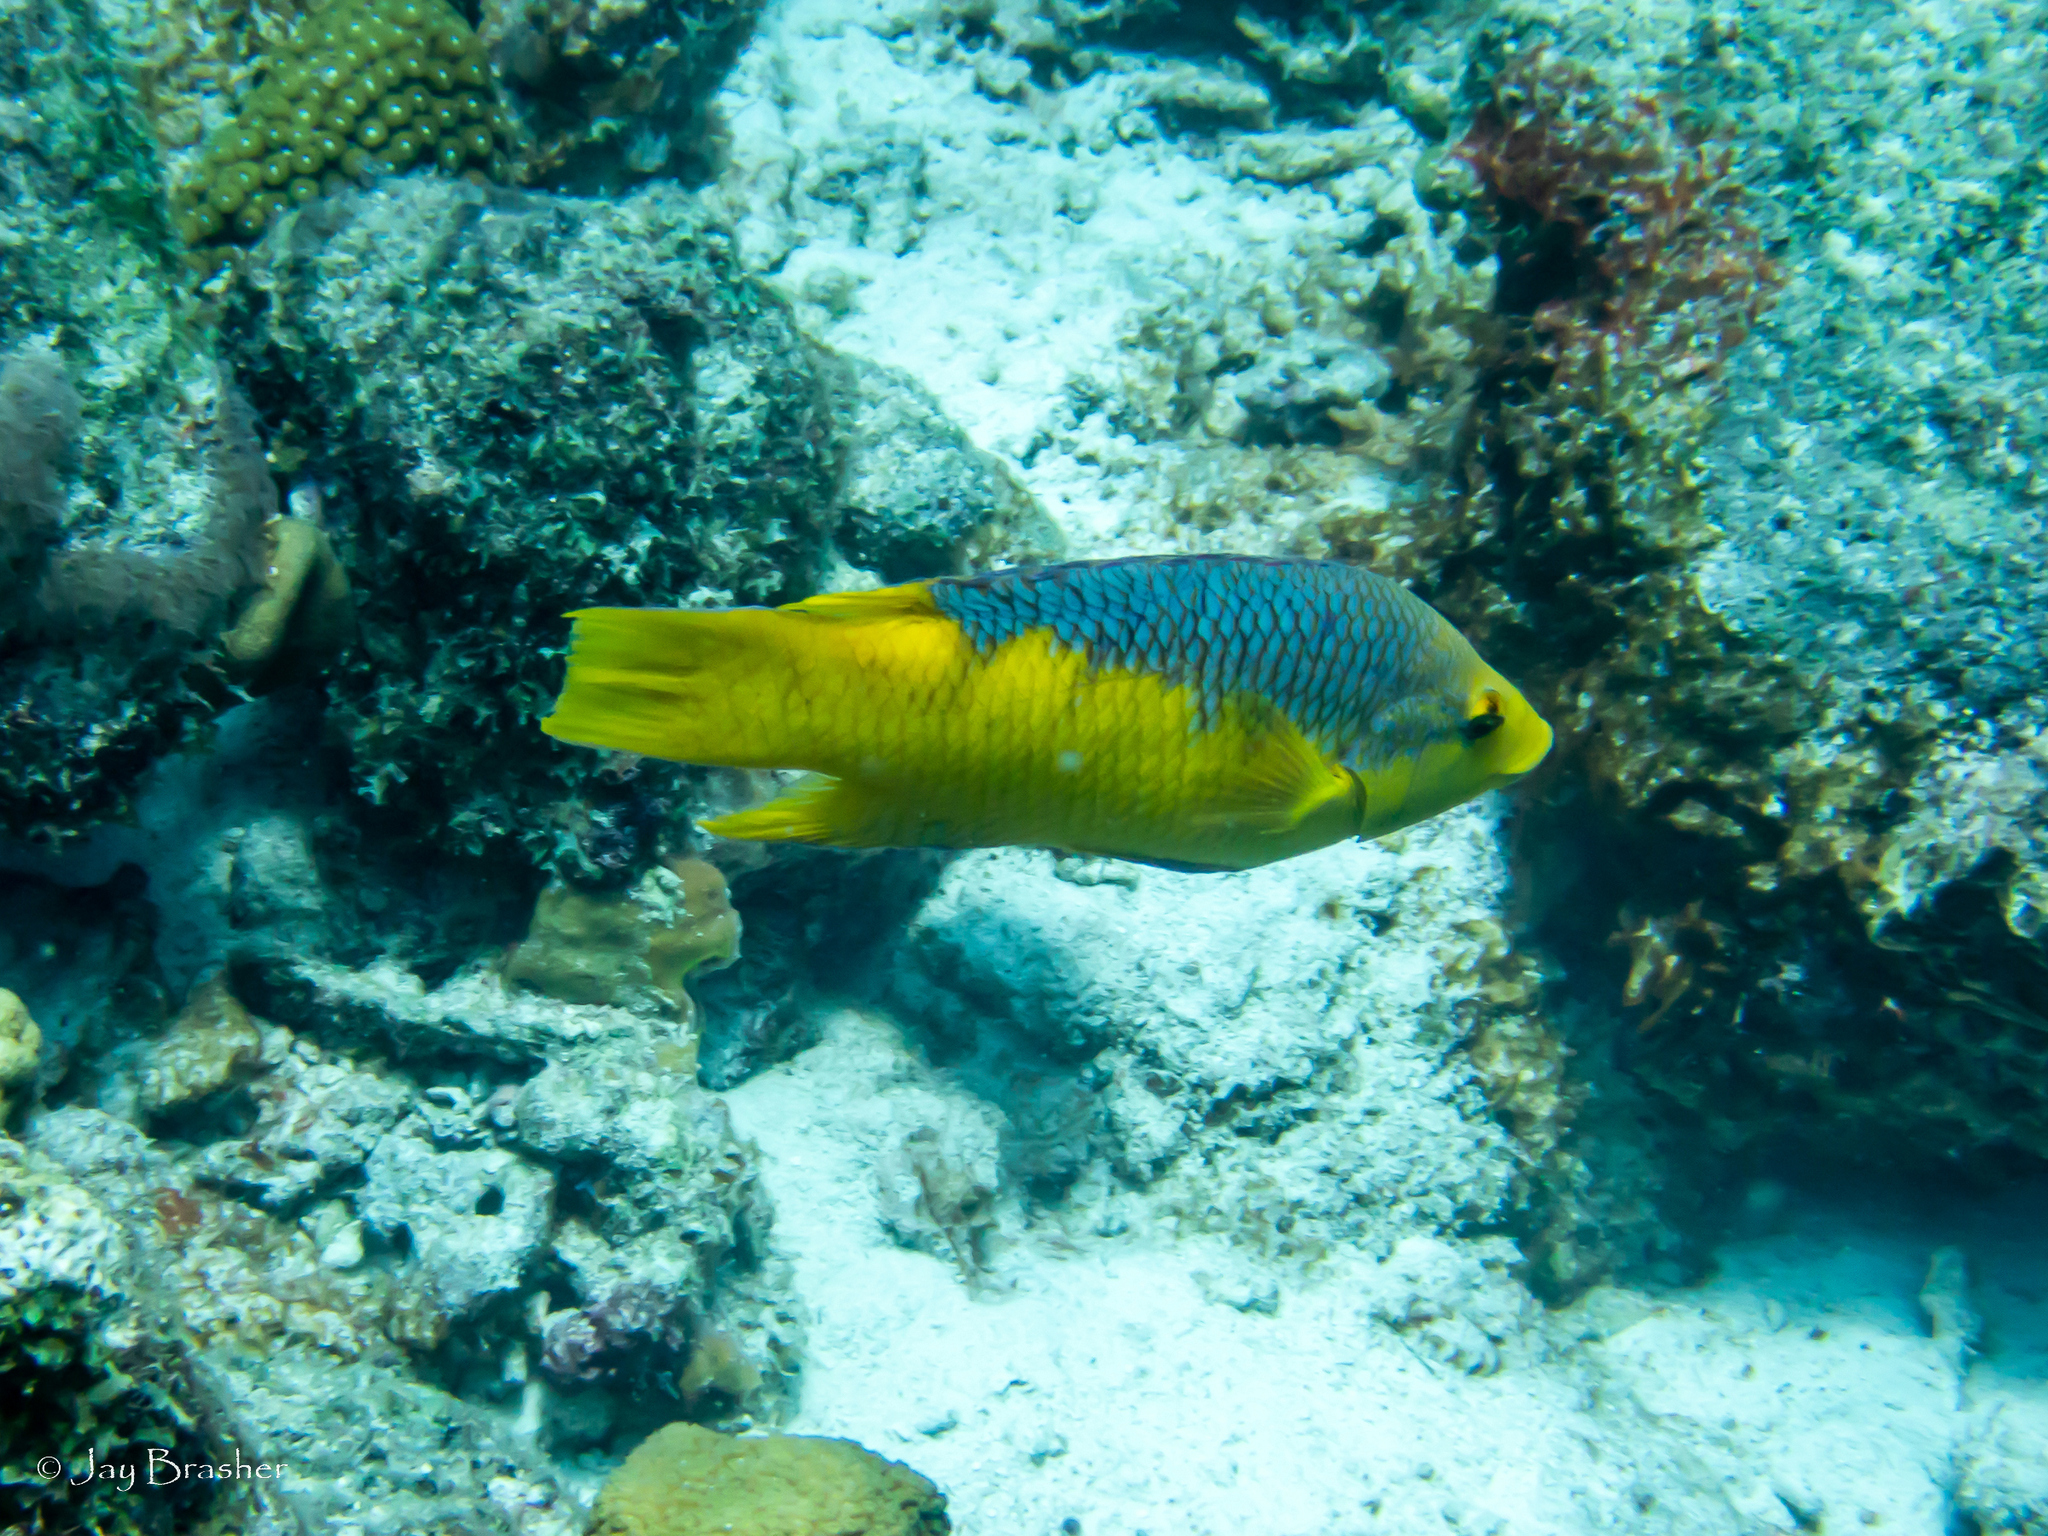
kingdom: Animalia
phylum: Chordata
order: Perciformes
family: Labridae
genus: Bodianus
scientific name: Bodianus rufus
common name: Spanish hogfish
